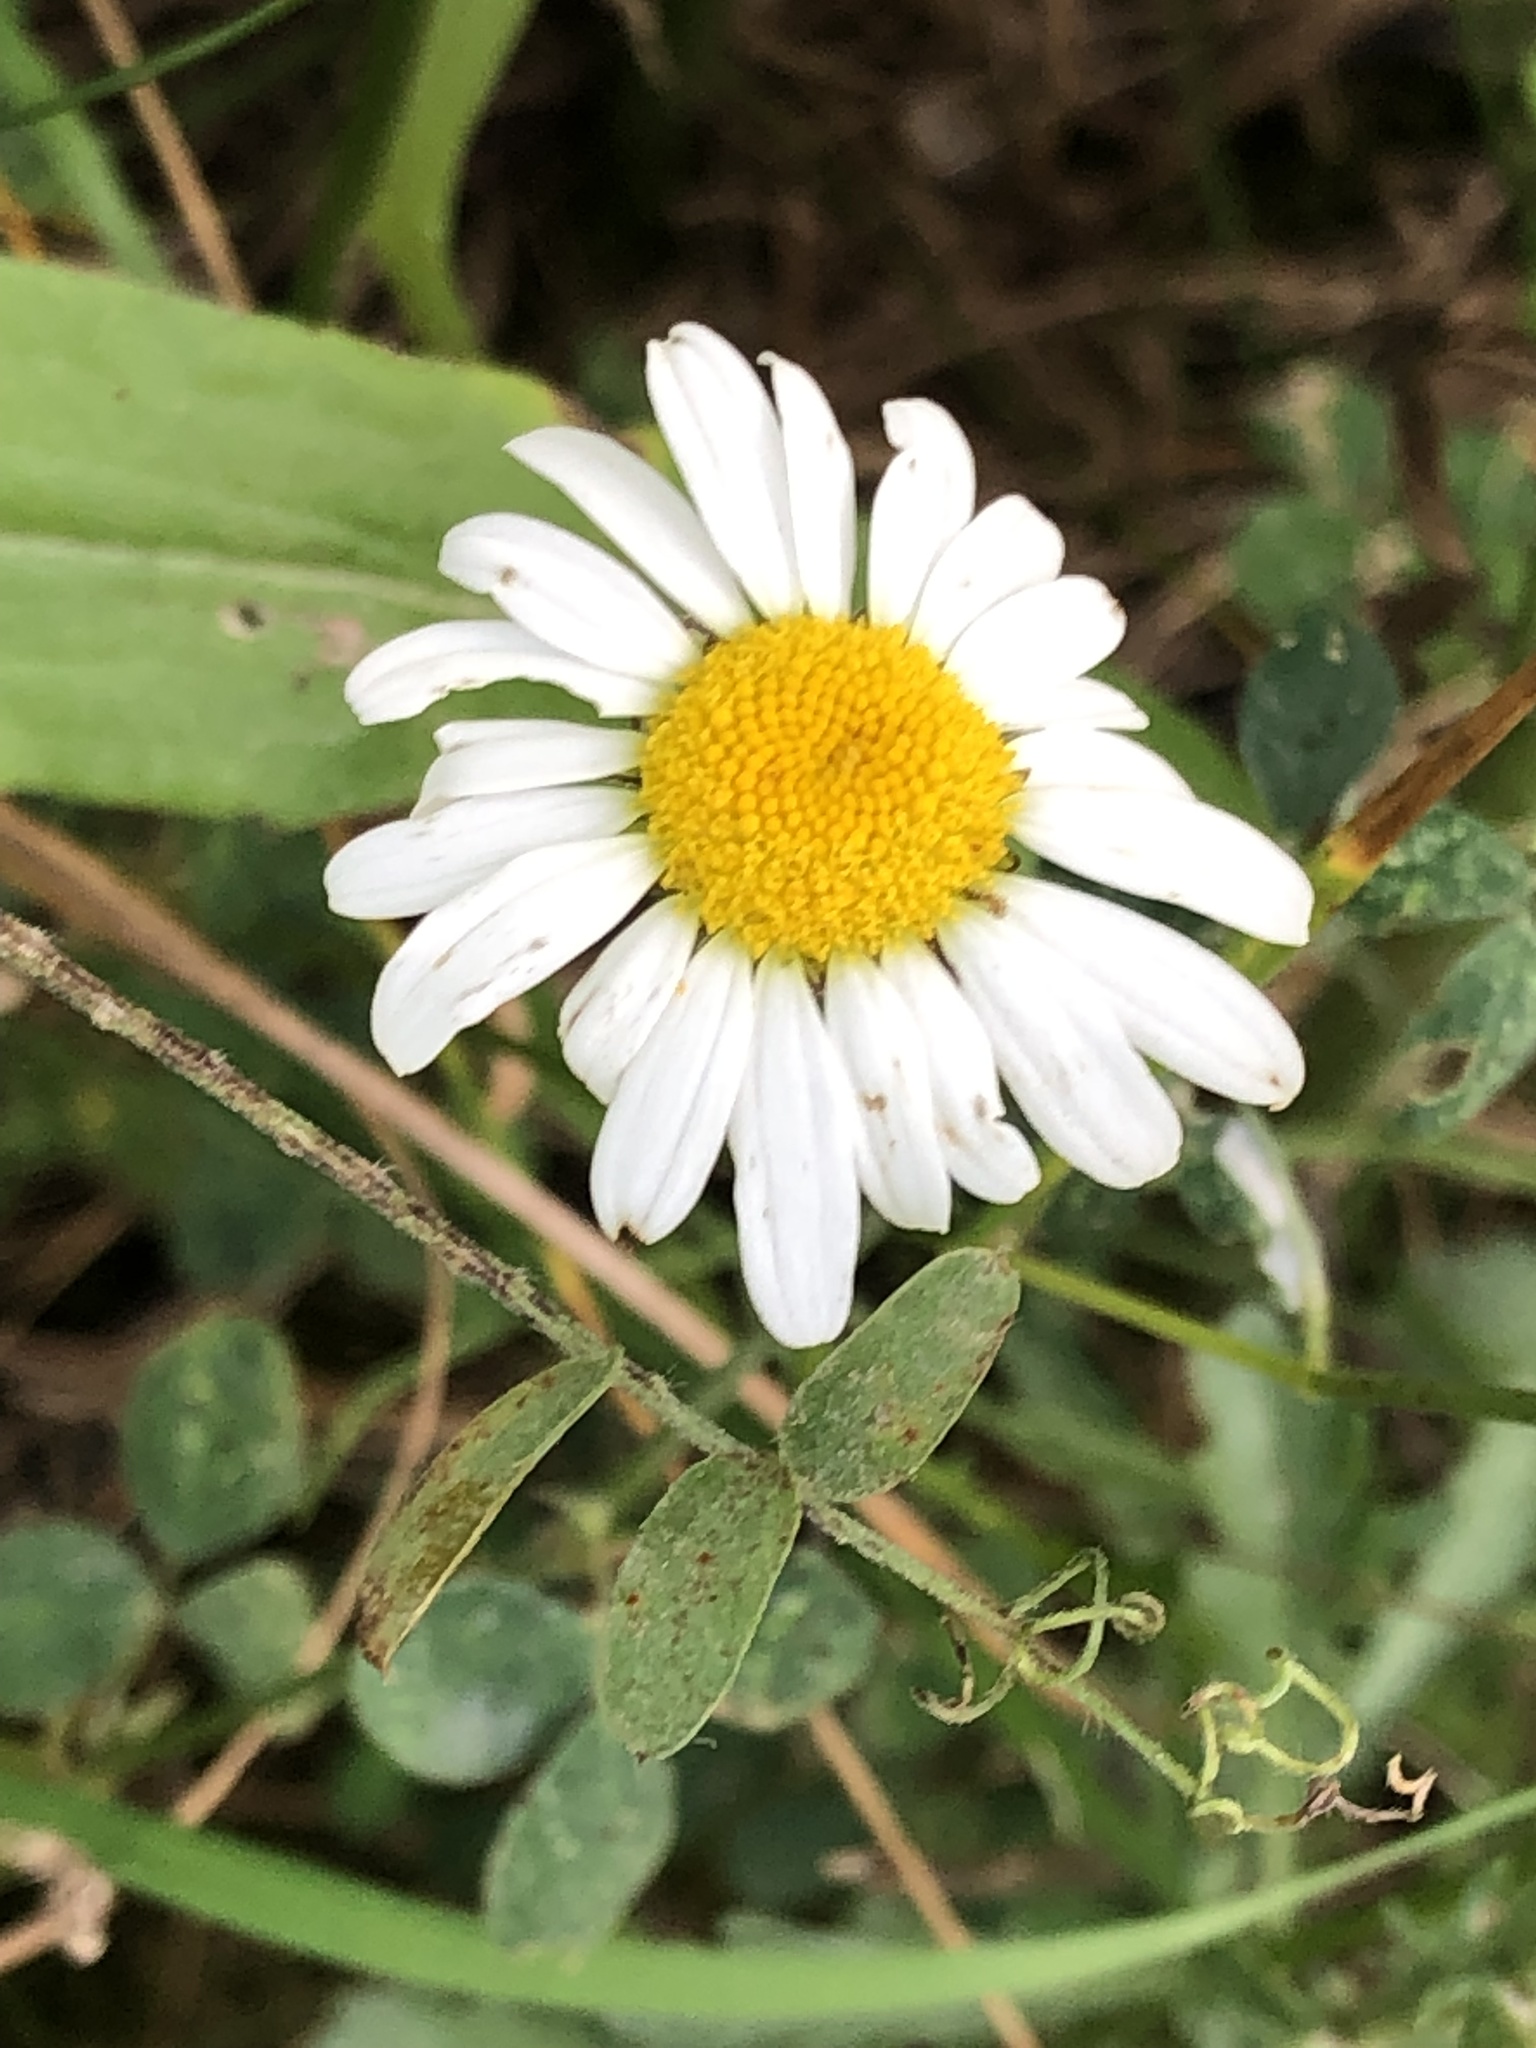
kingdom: Plantae
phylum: Tracheophyta
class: Magnoliopsida
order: Asterales
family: Asteraceae
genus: Leucanthemum
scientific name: Leucanthemum vulgare
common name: Oxeye daisy
